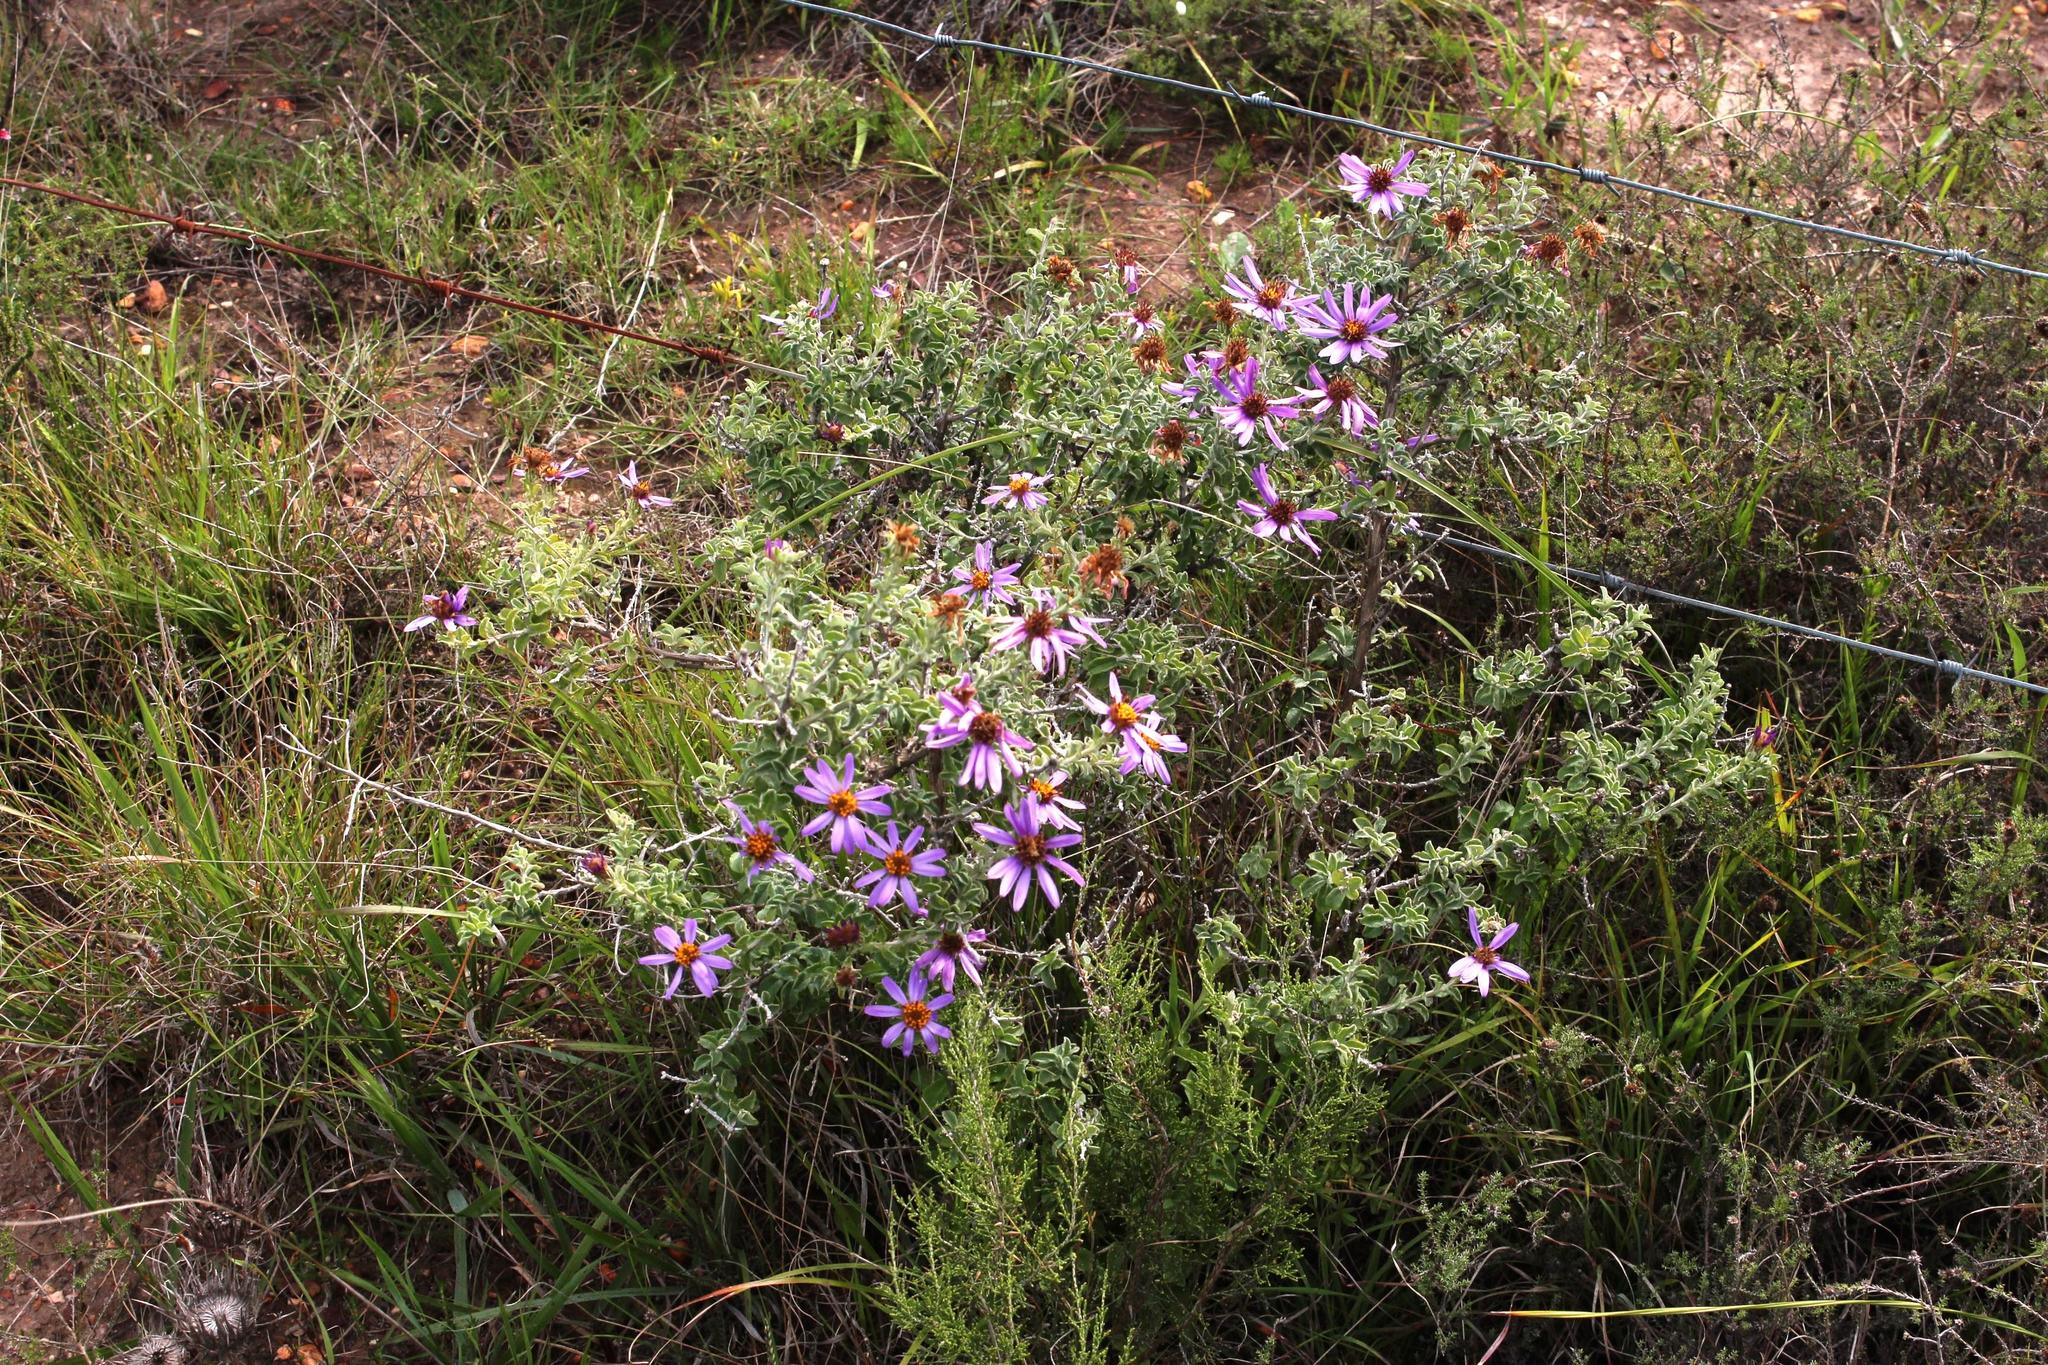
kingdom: Plantae
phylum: Tracheophyta
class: Magnoliopsida
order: Asterales
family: Asteraceae
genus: Printzia
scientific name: Printzia polifolia
